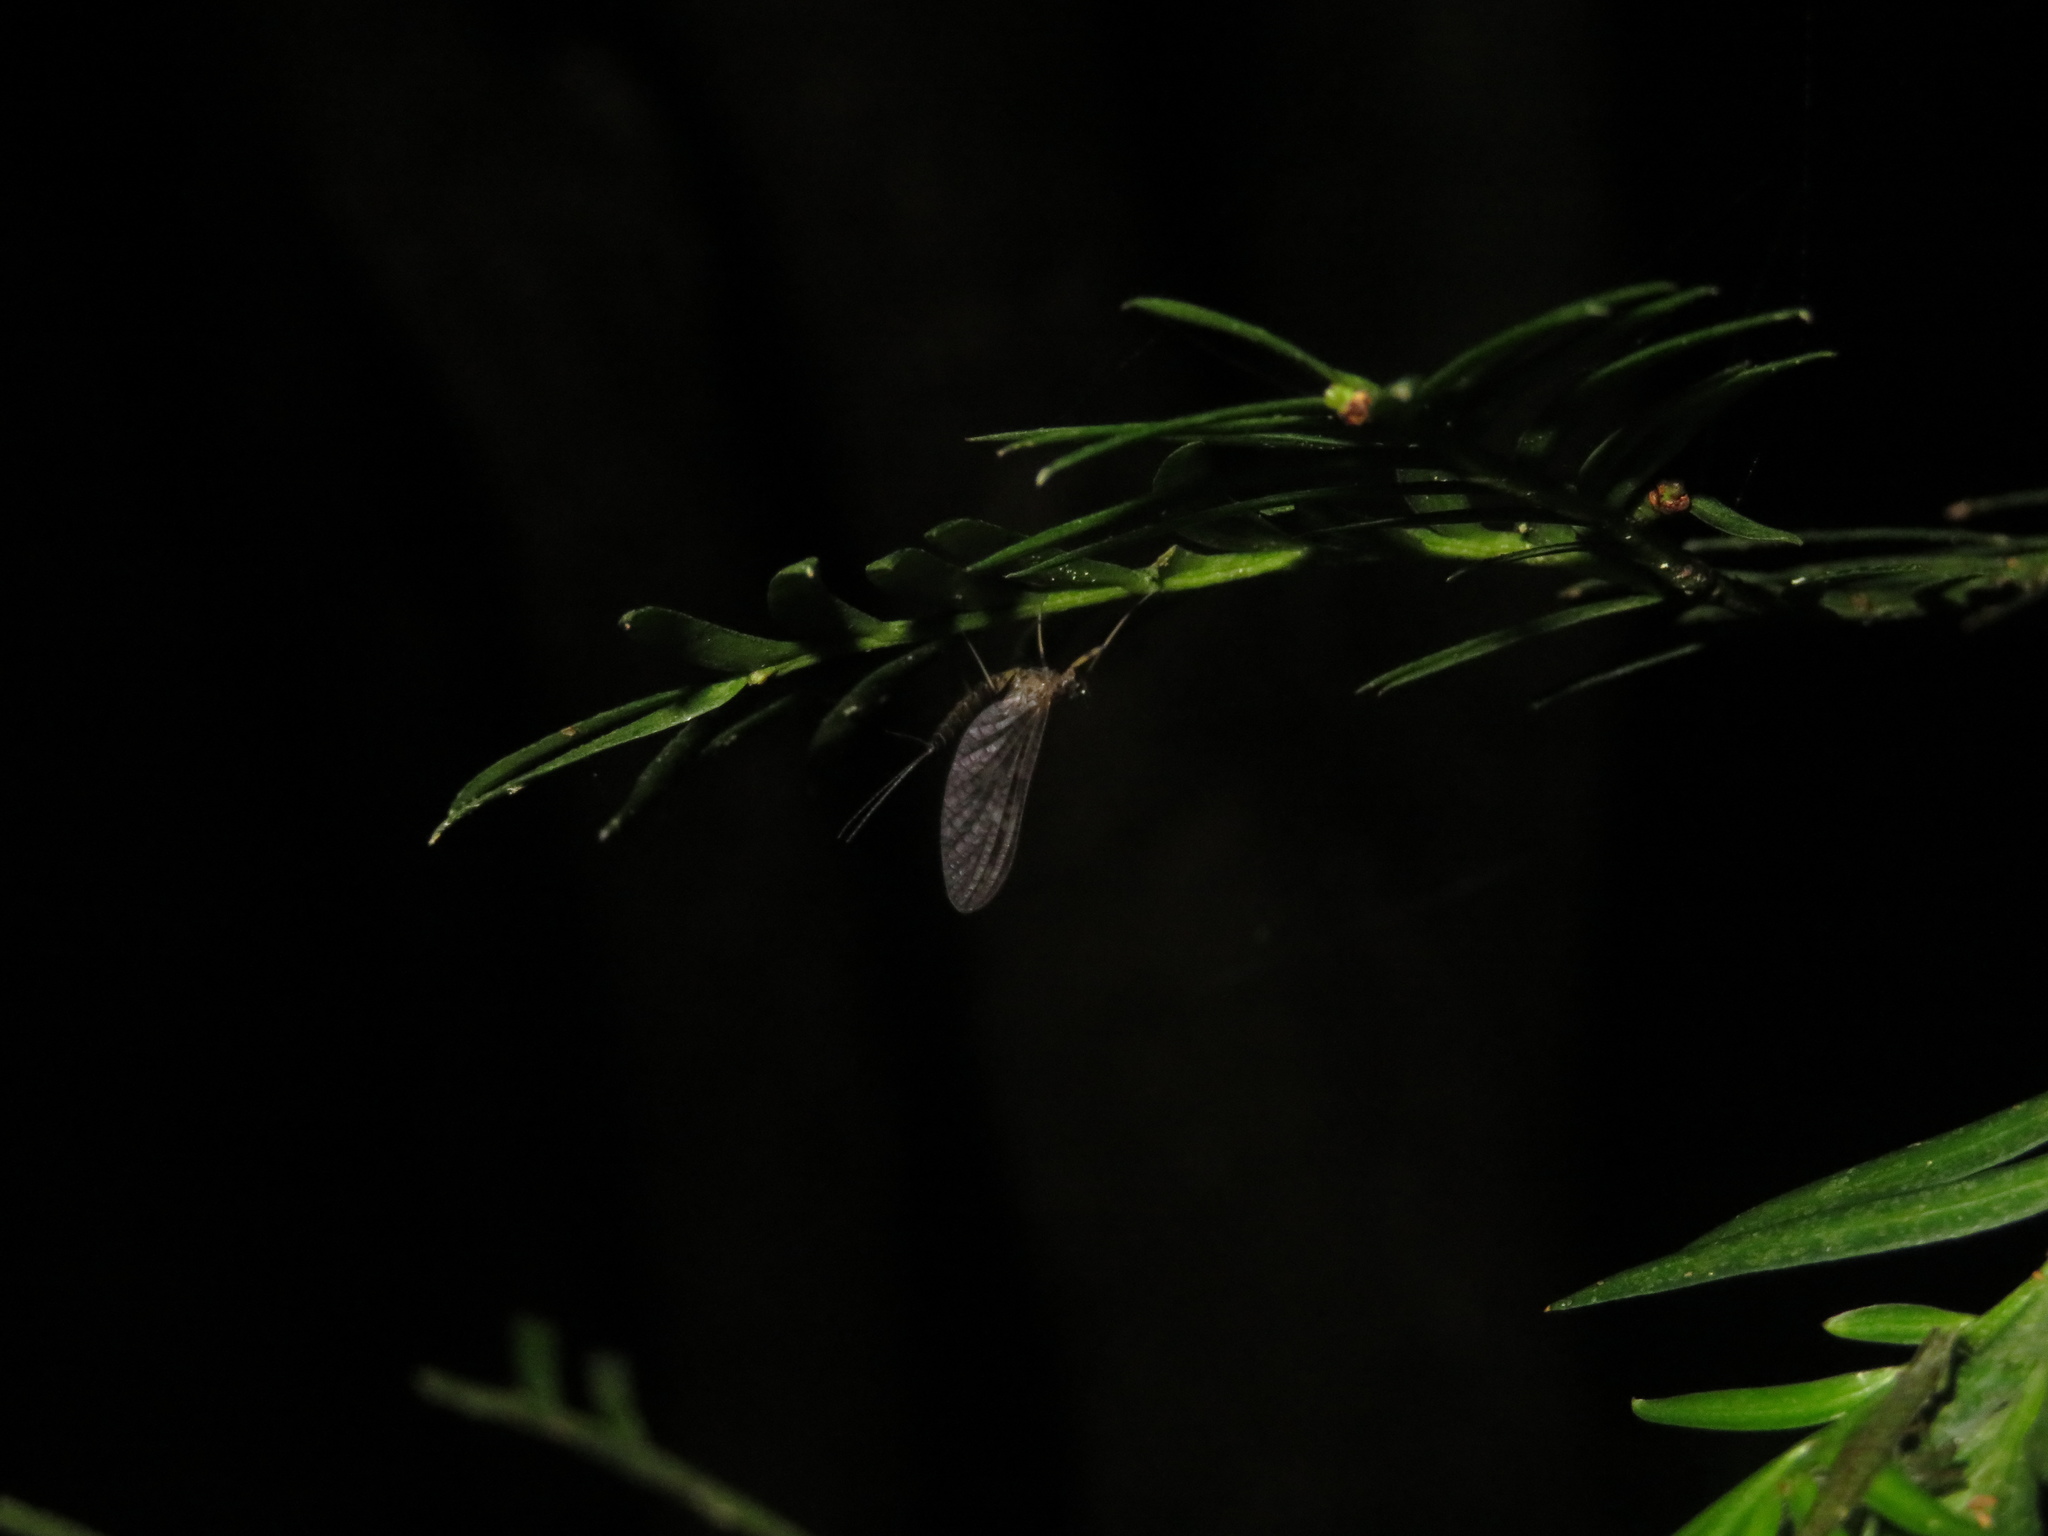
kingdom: Animalia
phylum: Arthropoda
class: Insecta
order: Ephemeroptera
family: Leptophlebiidae
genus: Neozephlebia
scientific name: Neozephlebia scita
